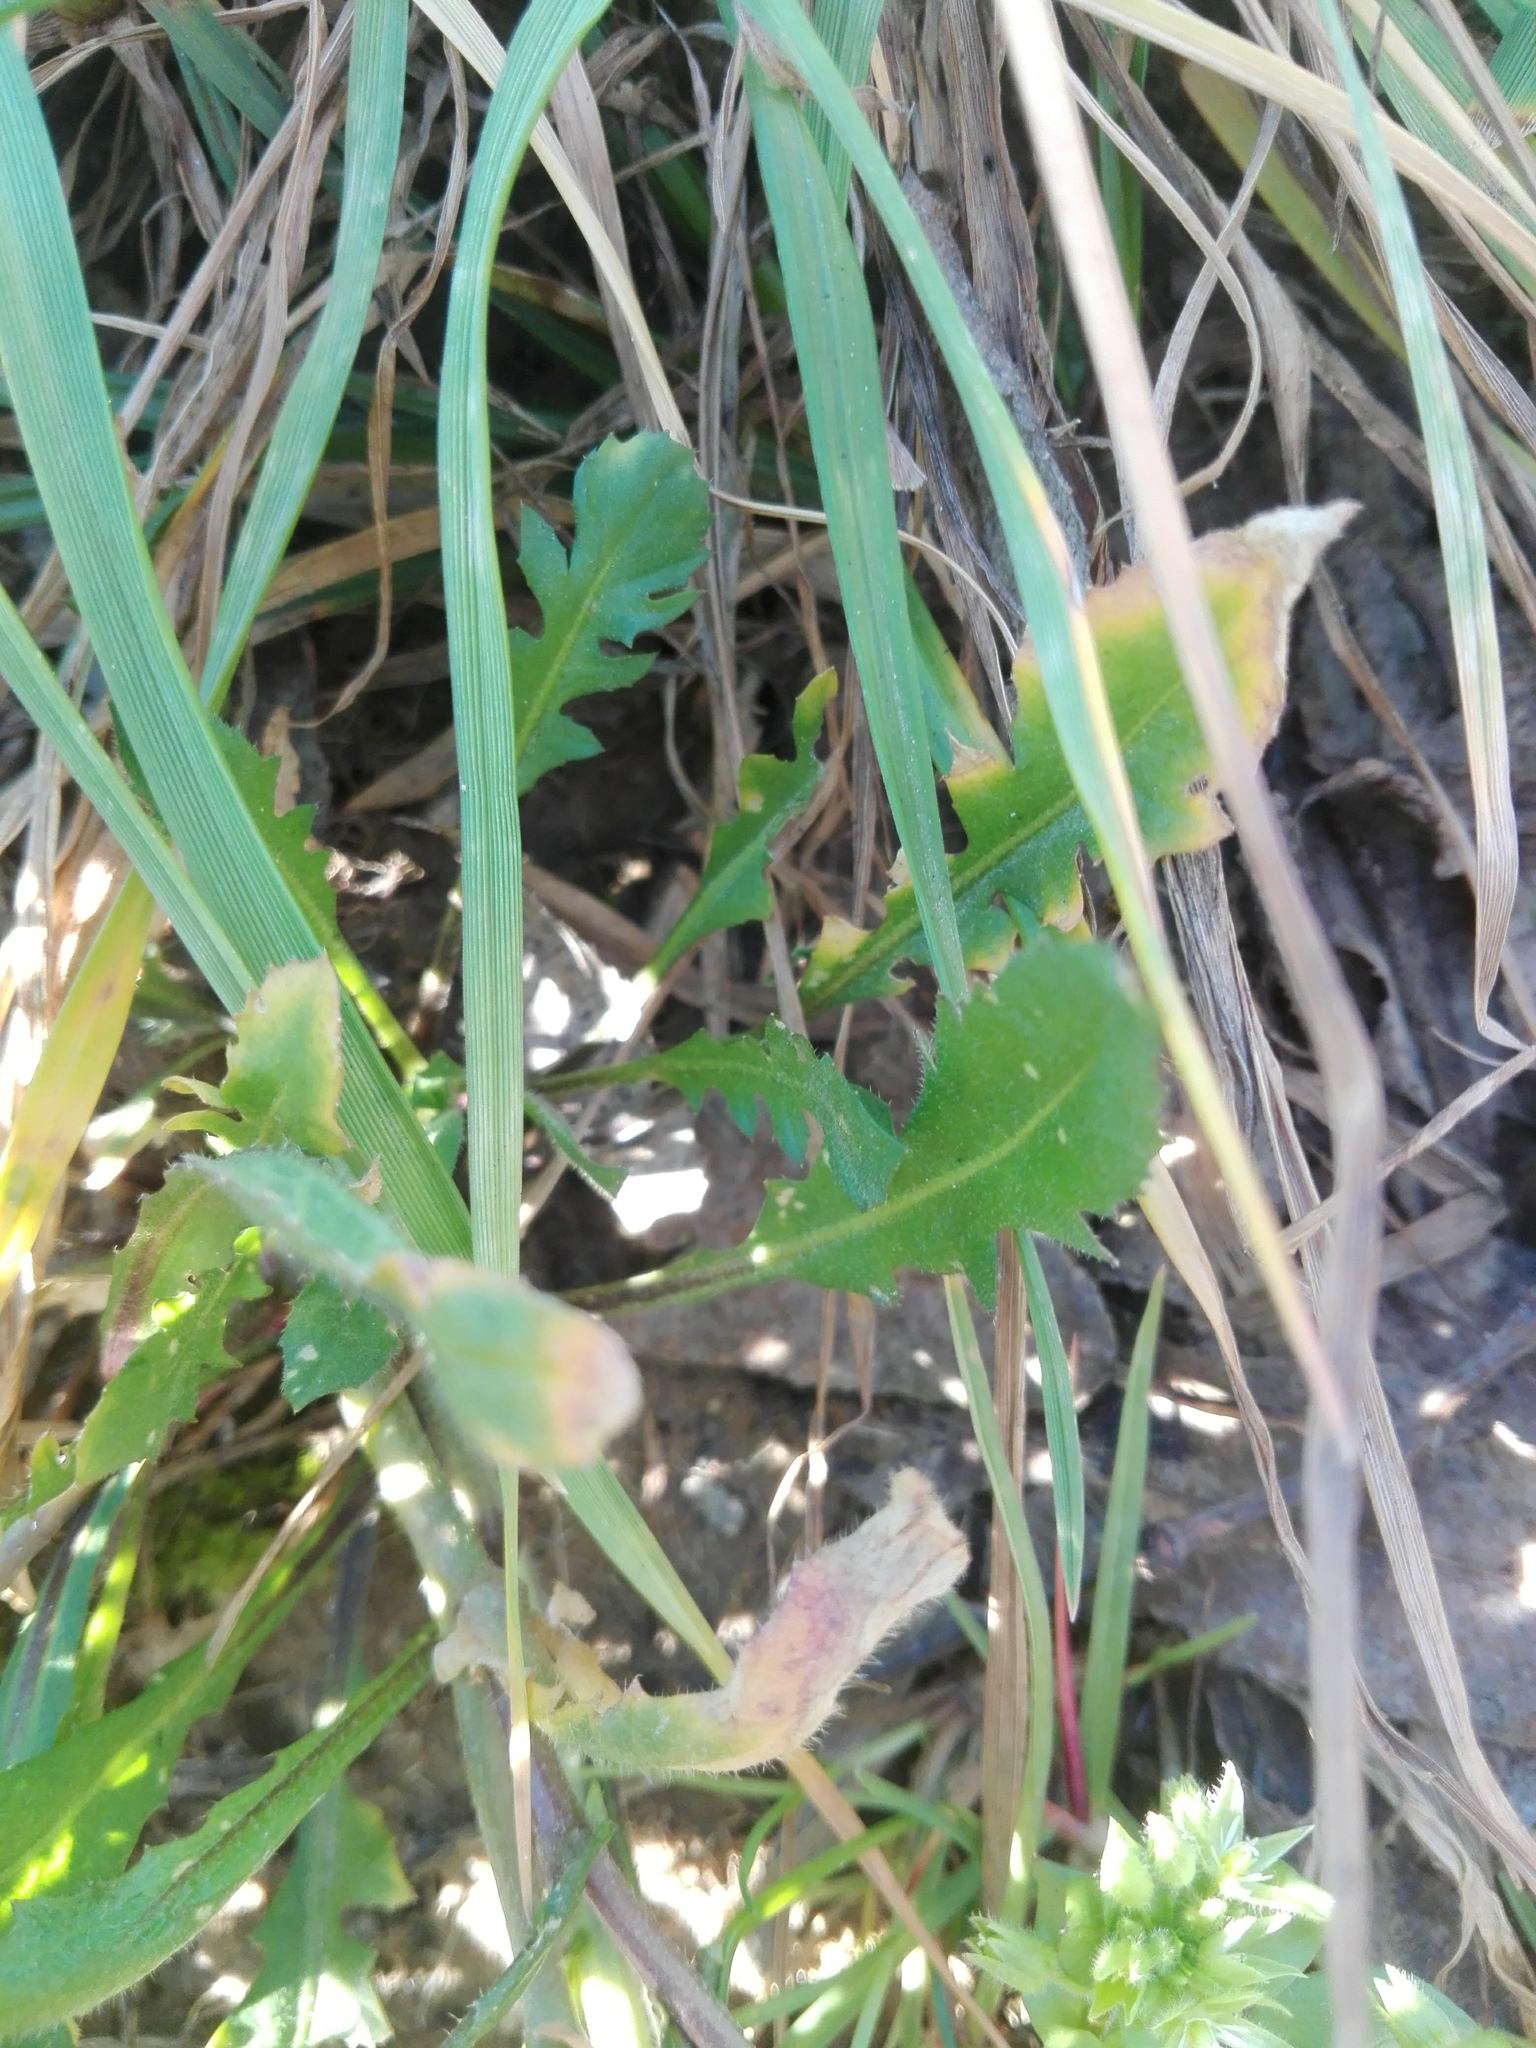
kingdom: Plantae
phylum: Tracheophyta
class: Magnoliopsida
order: Brassicales
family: Brassicaceae
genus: Capsella
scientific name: Capsella bursa-pastoris
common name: Shepherd's purse
